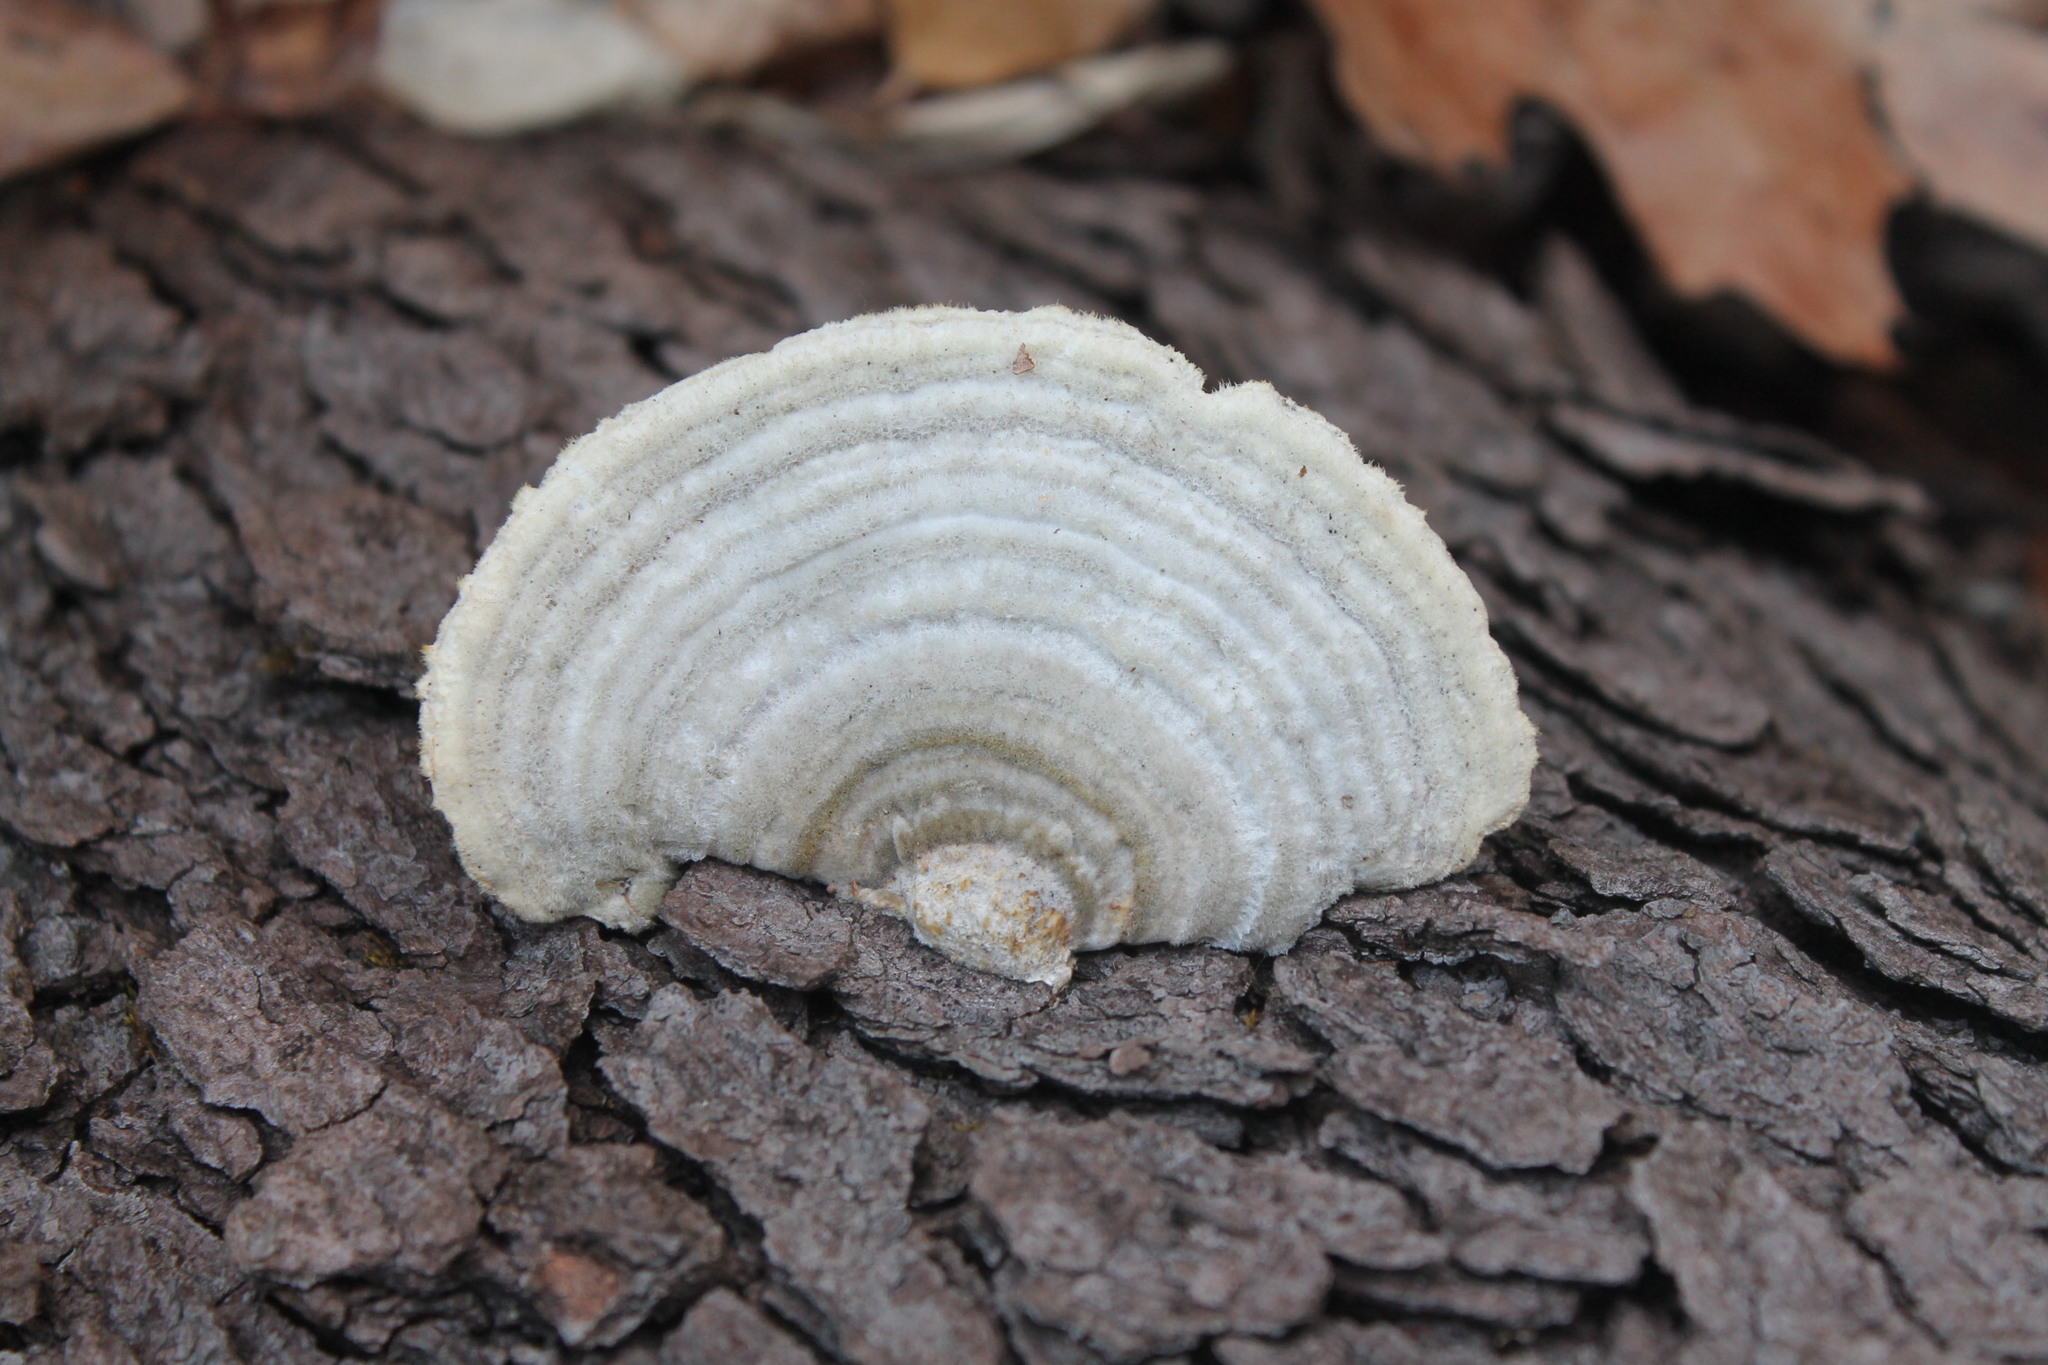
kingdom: Fungi
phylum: Basidiomycota
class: Agaricomycetes
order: Polyporales
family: Polyporaceae
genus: Trametes
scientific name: Trametes hirsuta
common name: Hairy bracket
